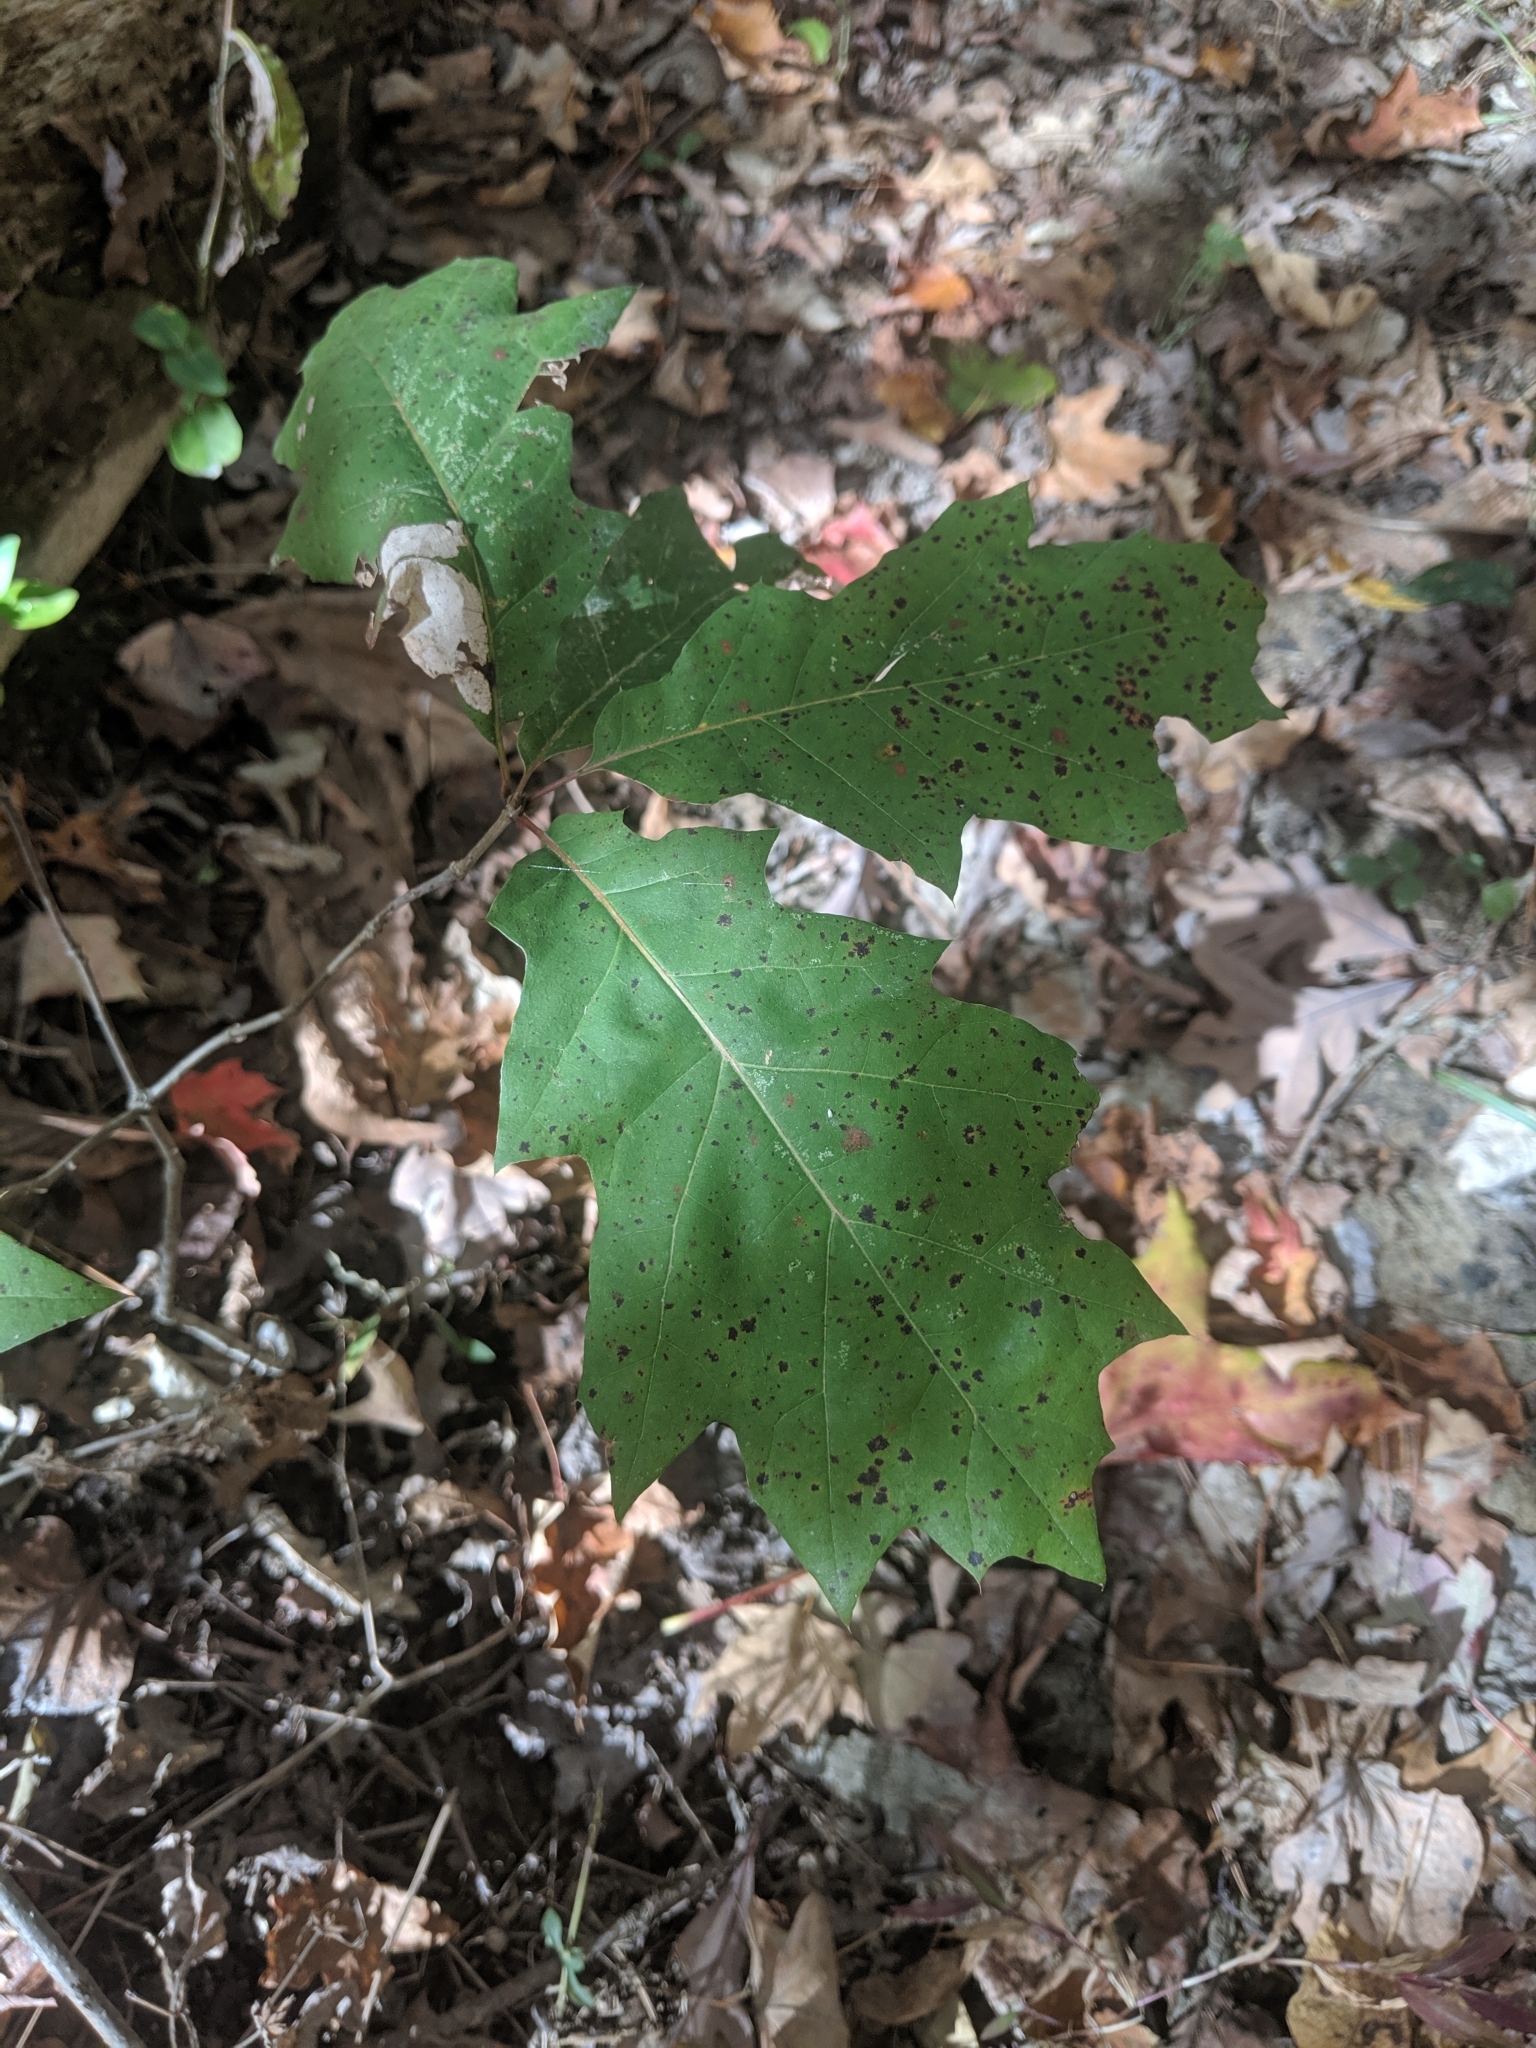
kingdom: Plantae
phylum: Tracheophyta
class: Magnoliopsida
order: Fagales
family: Fagaceae
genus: Quercus
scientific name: Quercus rubra
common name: Red oak
